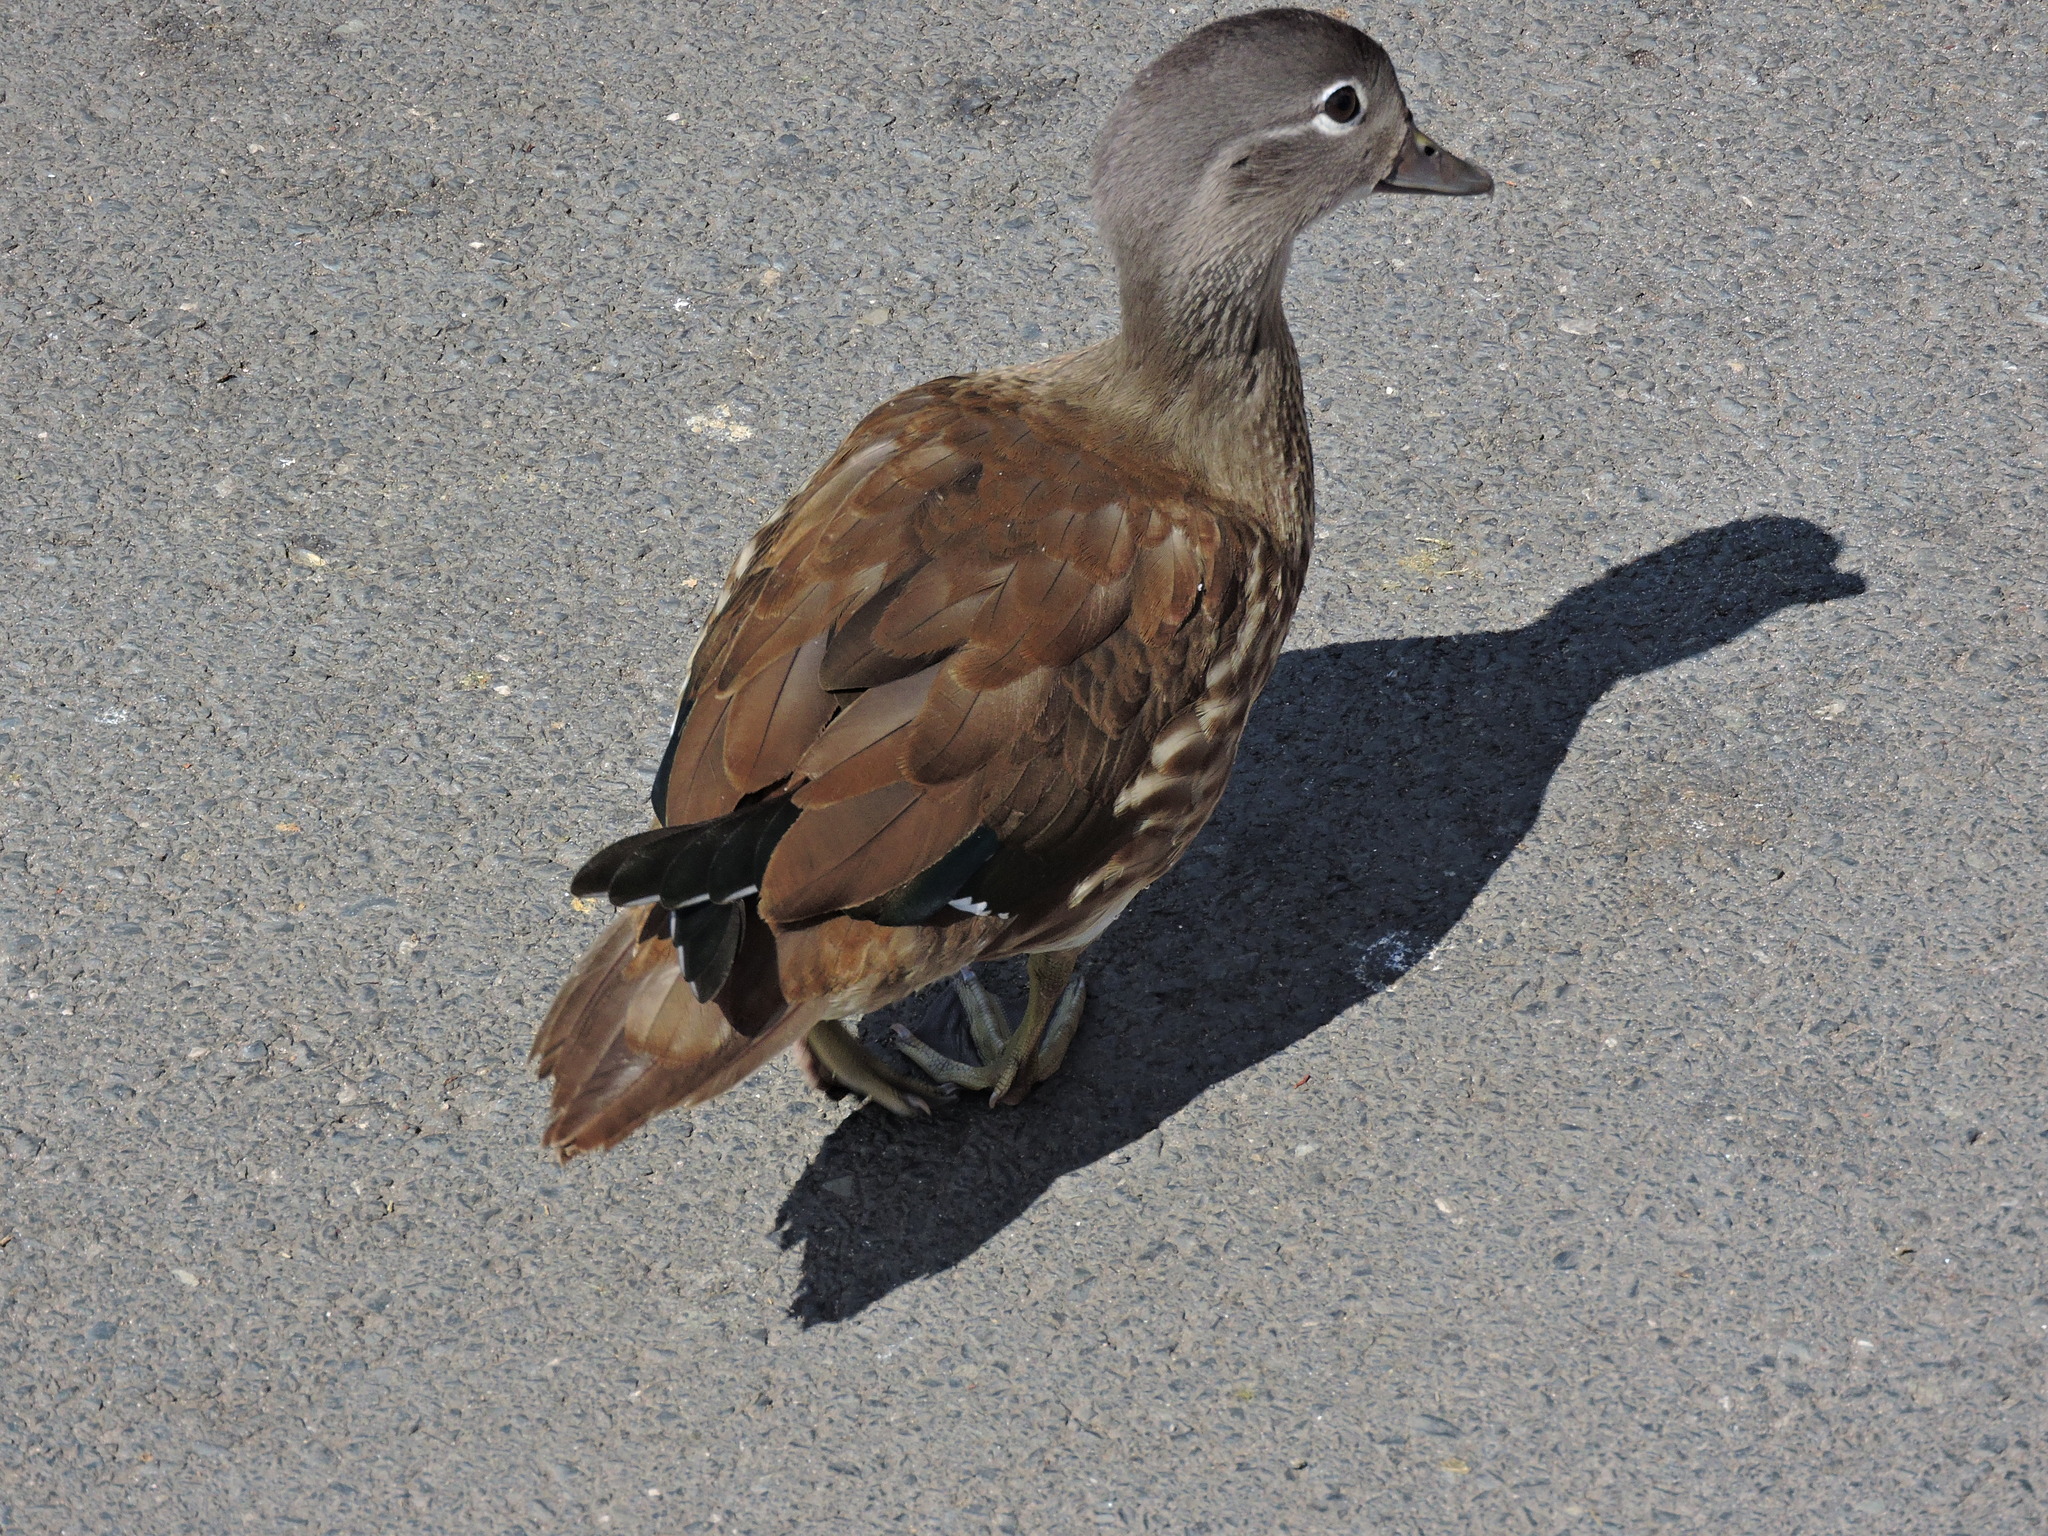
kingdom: Animalia
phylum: Chordata
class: Aves
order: Anseriformes
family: Anatidae
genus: Aix
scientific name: Aix galericulata
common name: Mandarin duck
